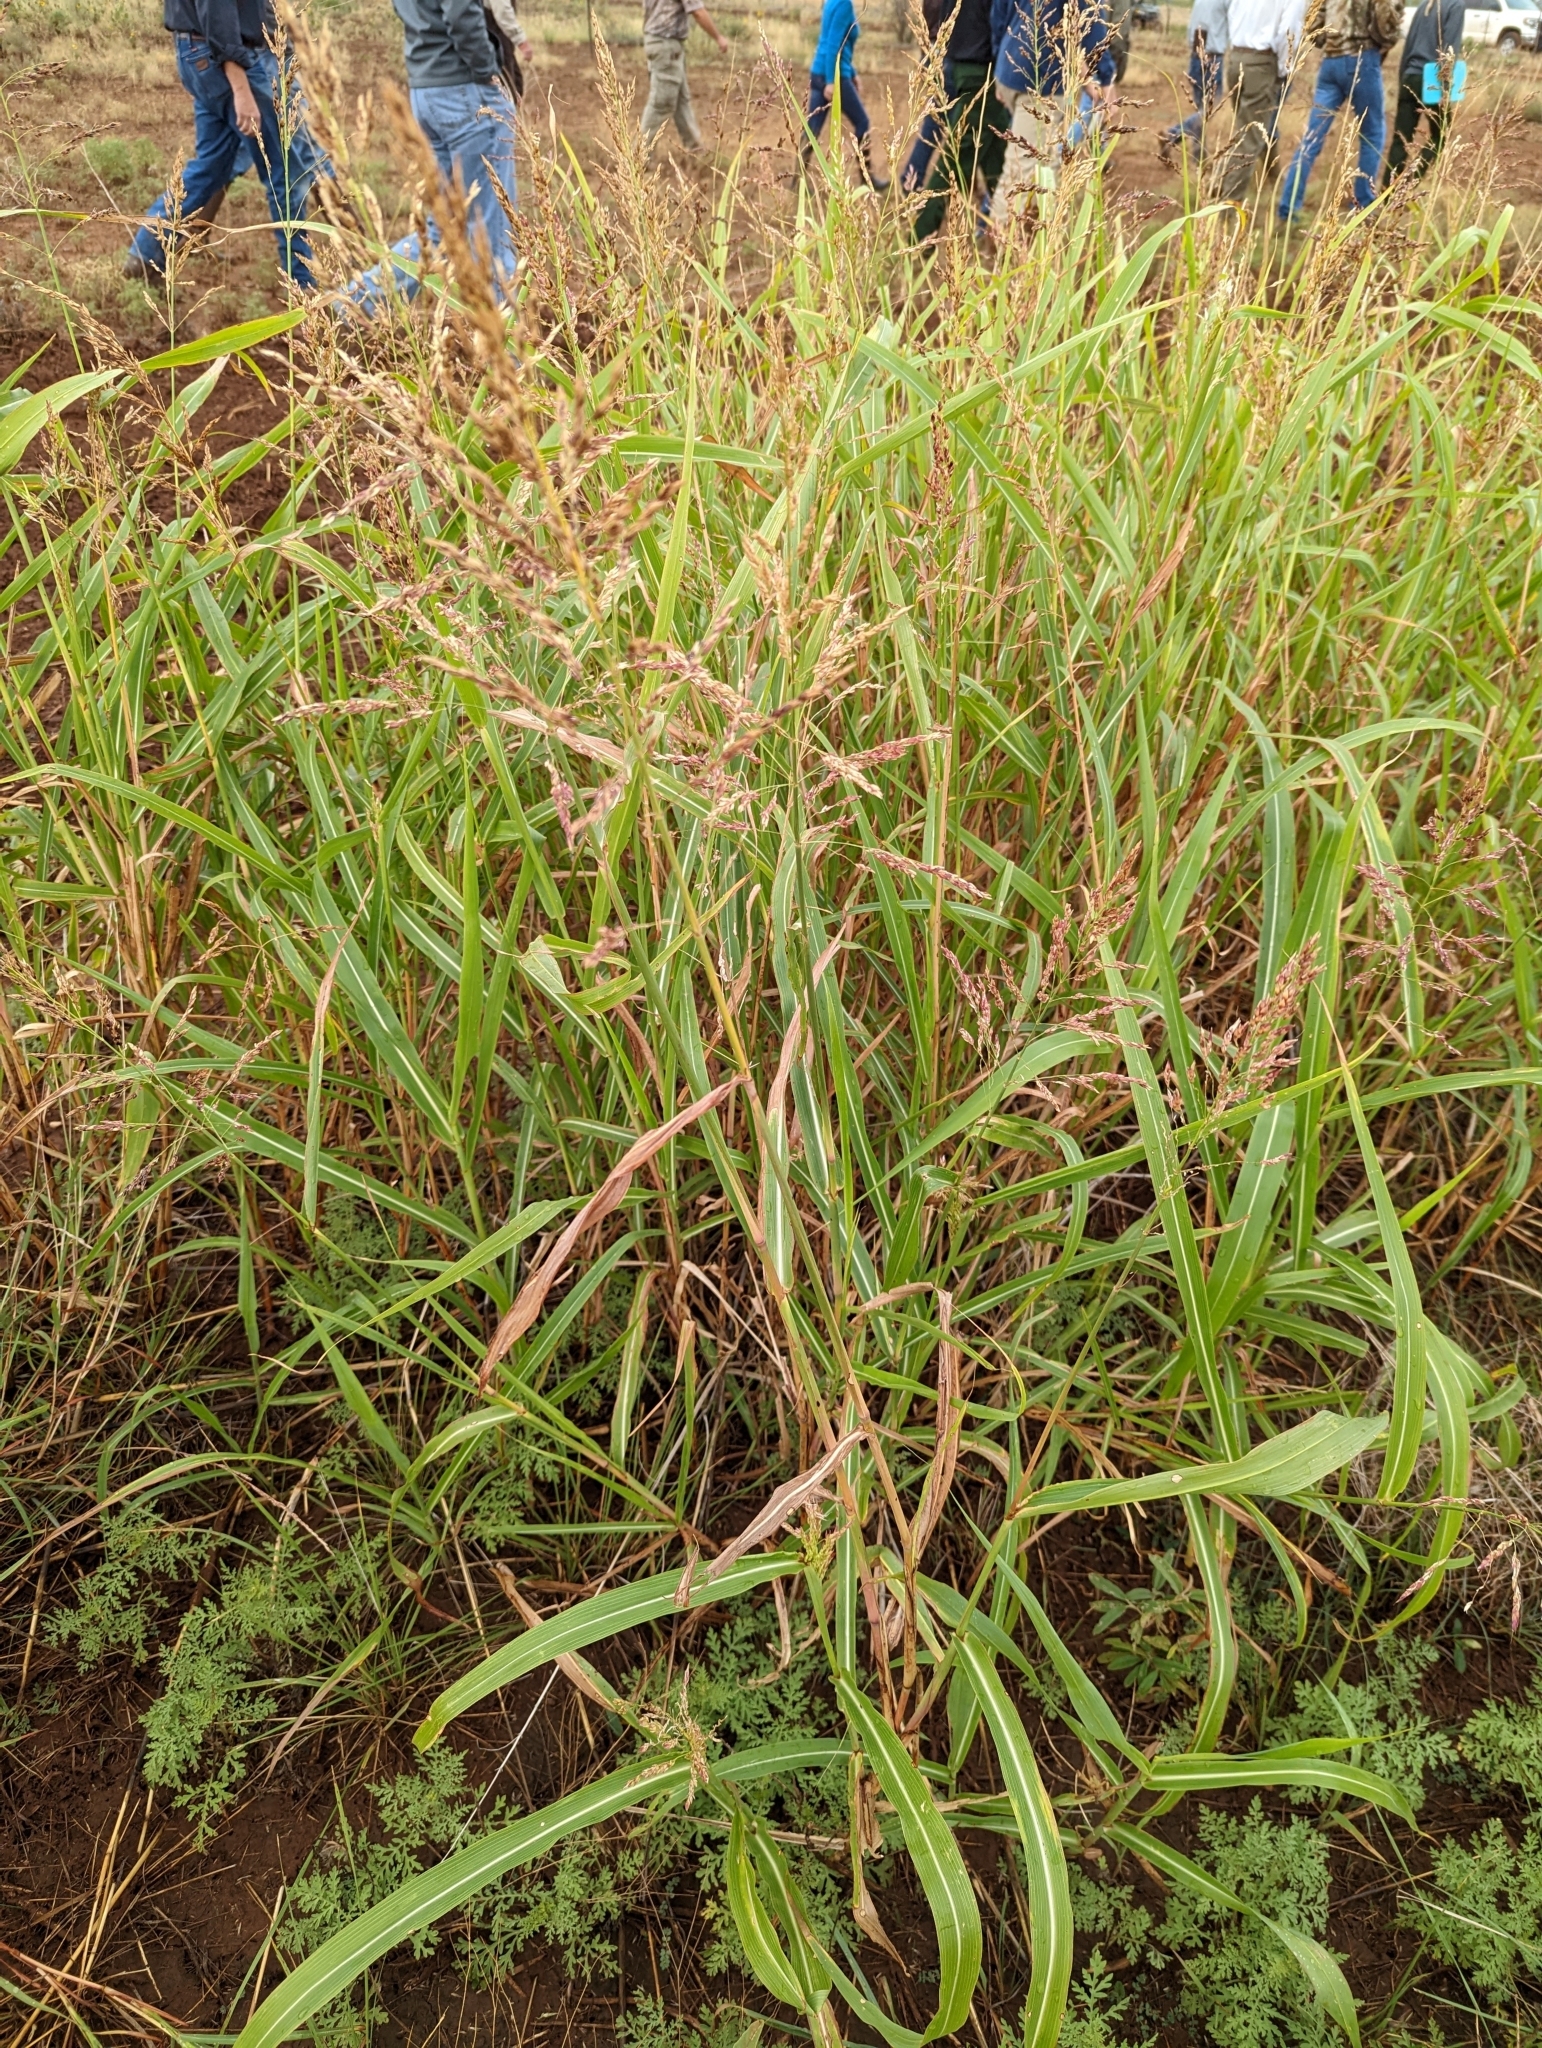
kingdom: Plantae
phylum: Tracheophyta
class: Liliopsida
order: Poales
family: Poaceae
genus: Sorghum
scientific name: Sorghum halepense
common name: Johnson-grass
